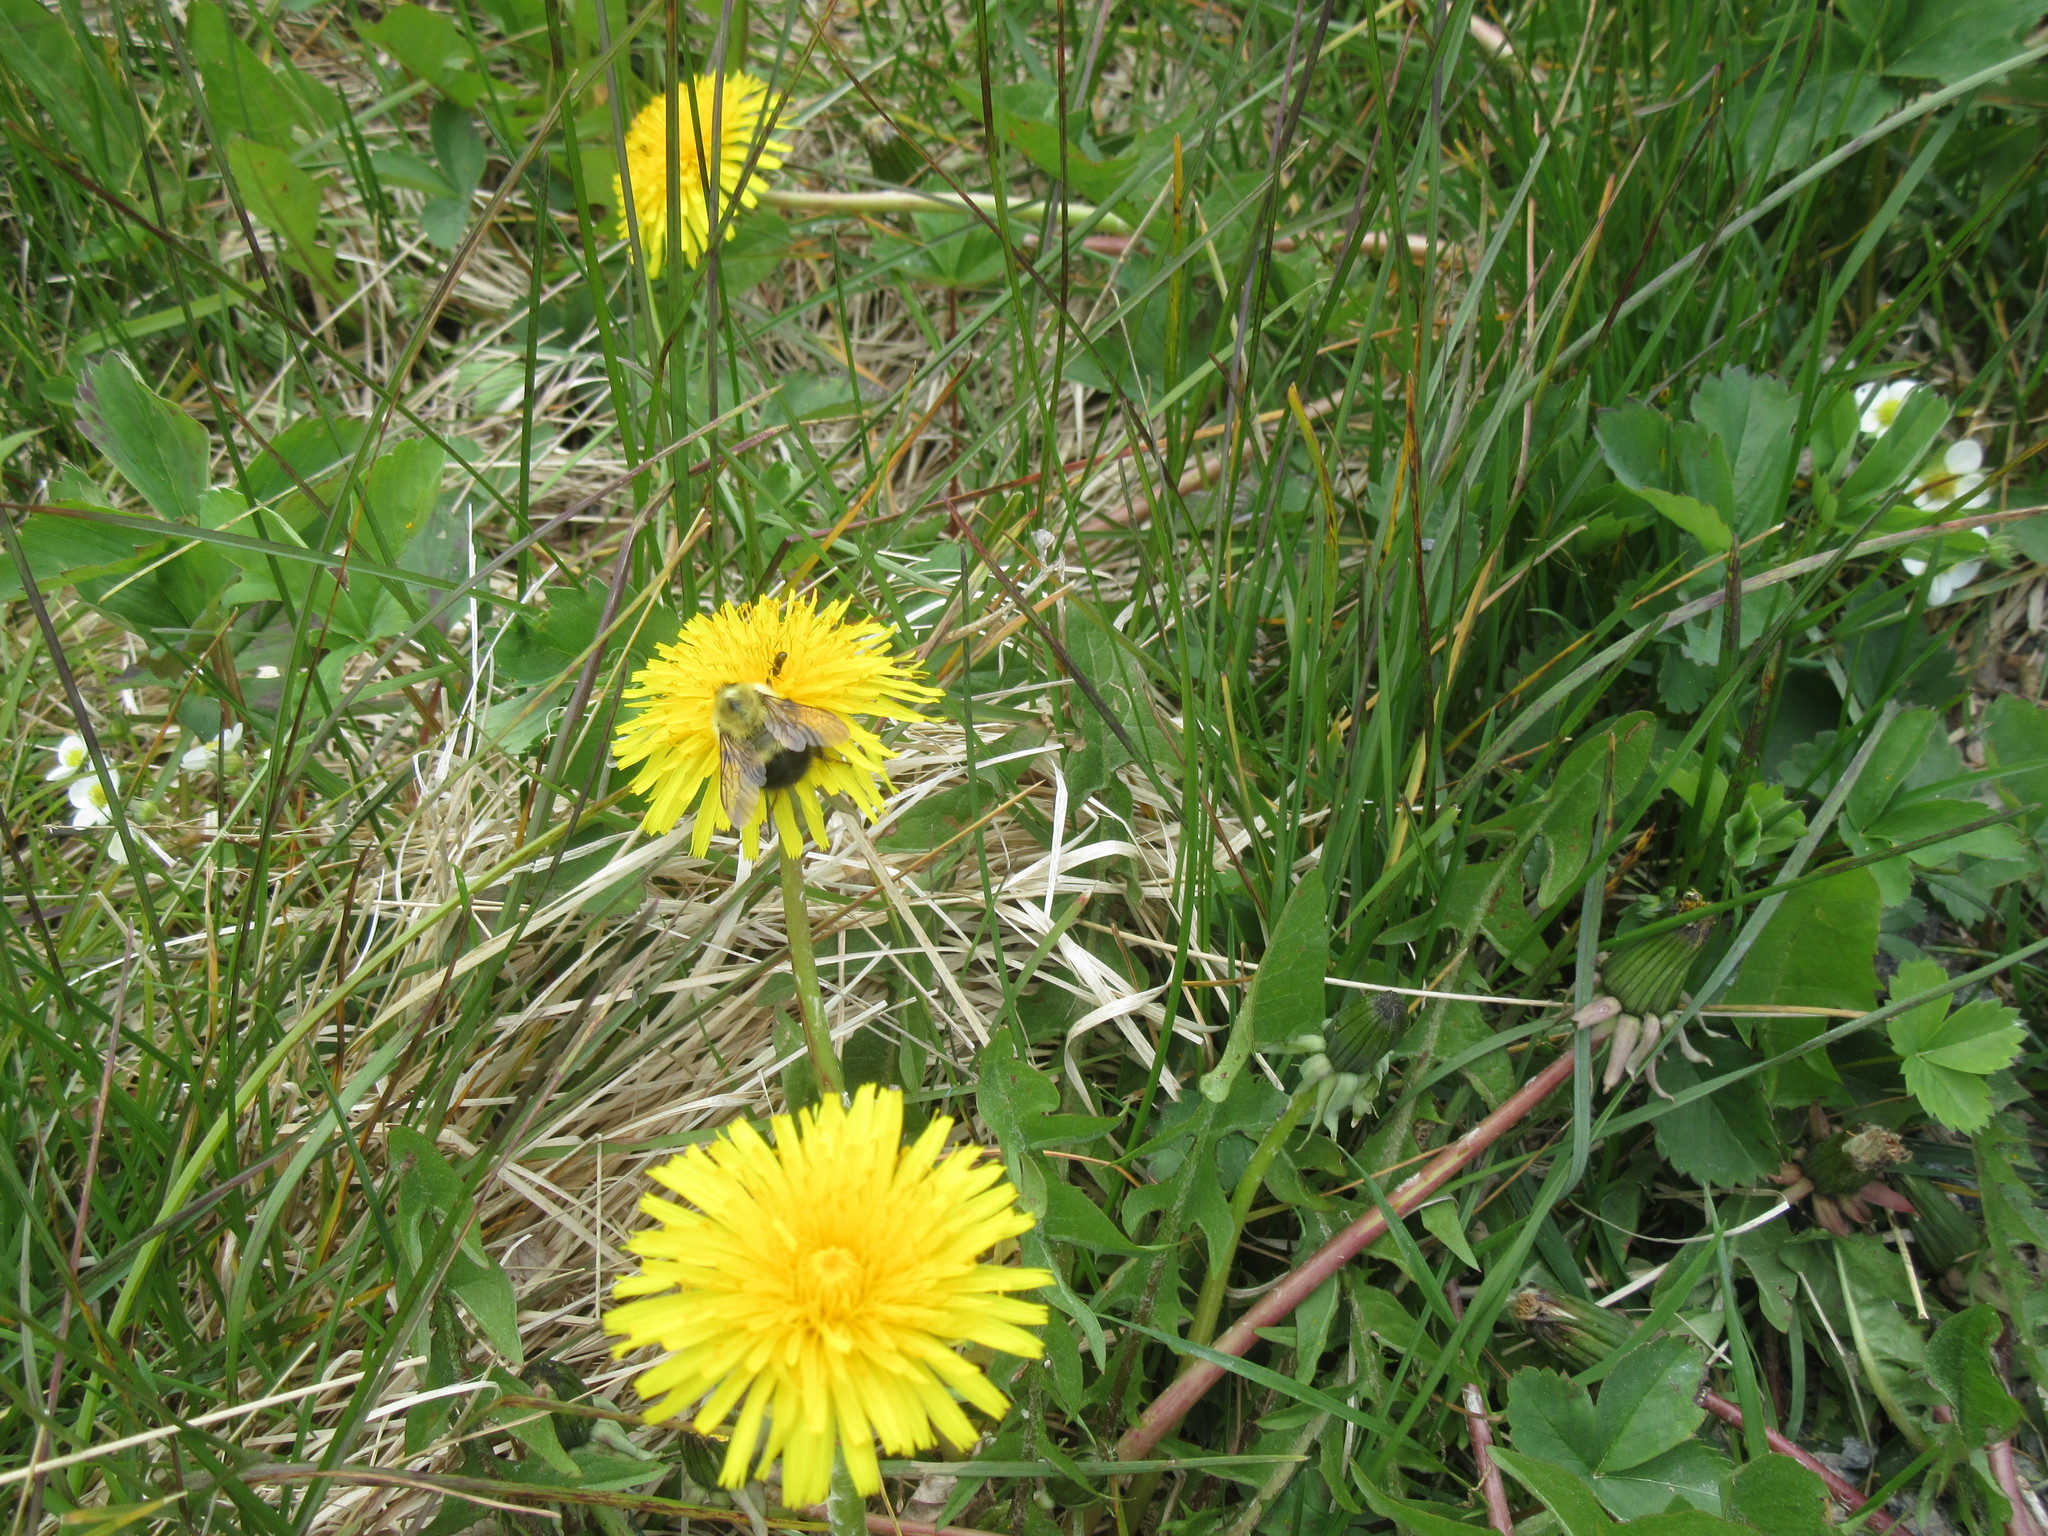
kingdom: Plantae
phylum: Tracheophyta
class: Magnoliopsida
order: Asterales
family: Asteraceae
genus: Taraxacum
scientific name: Taraxacum officinale
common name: Common dandelion
